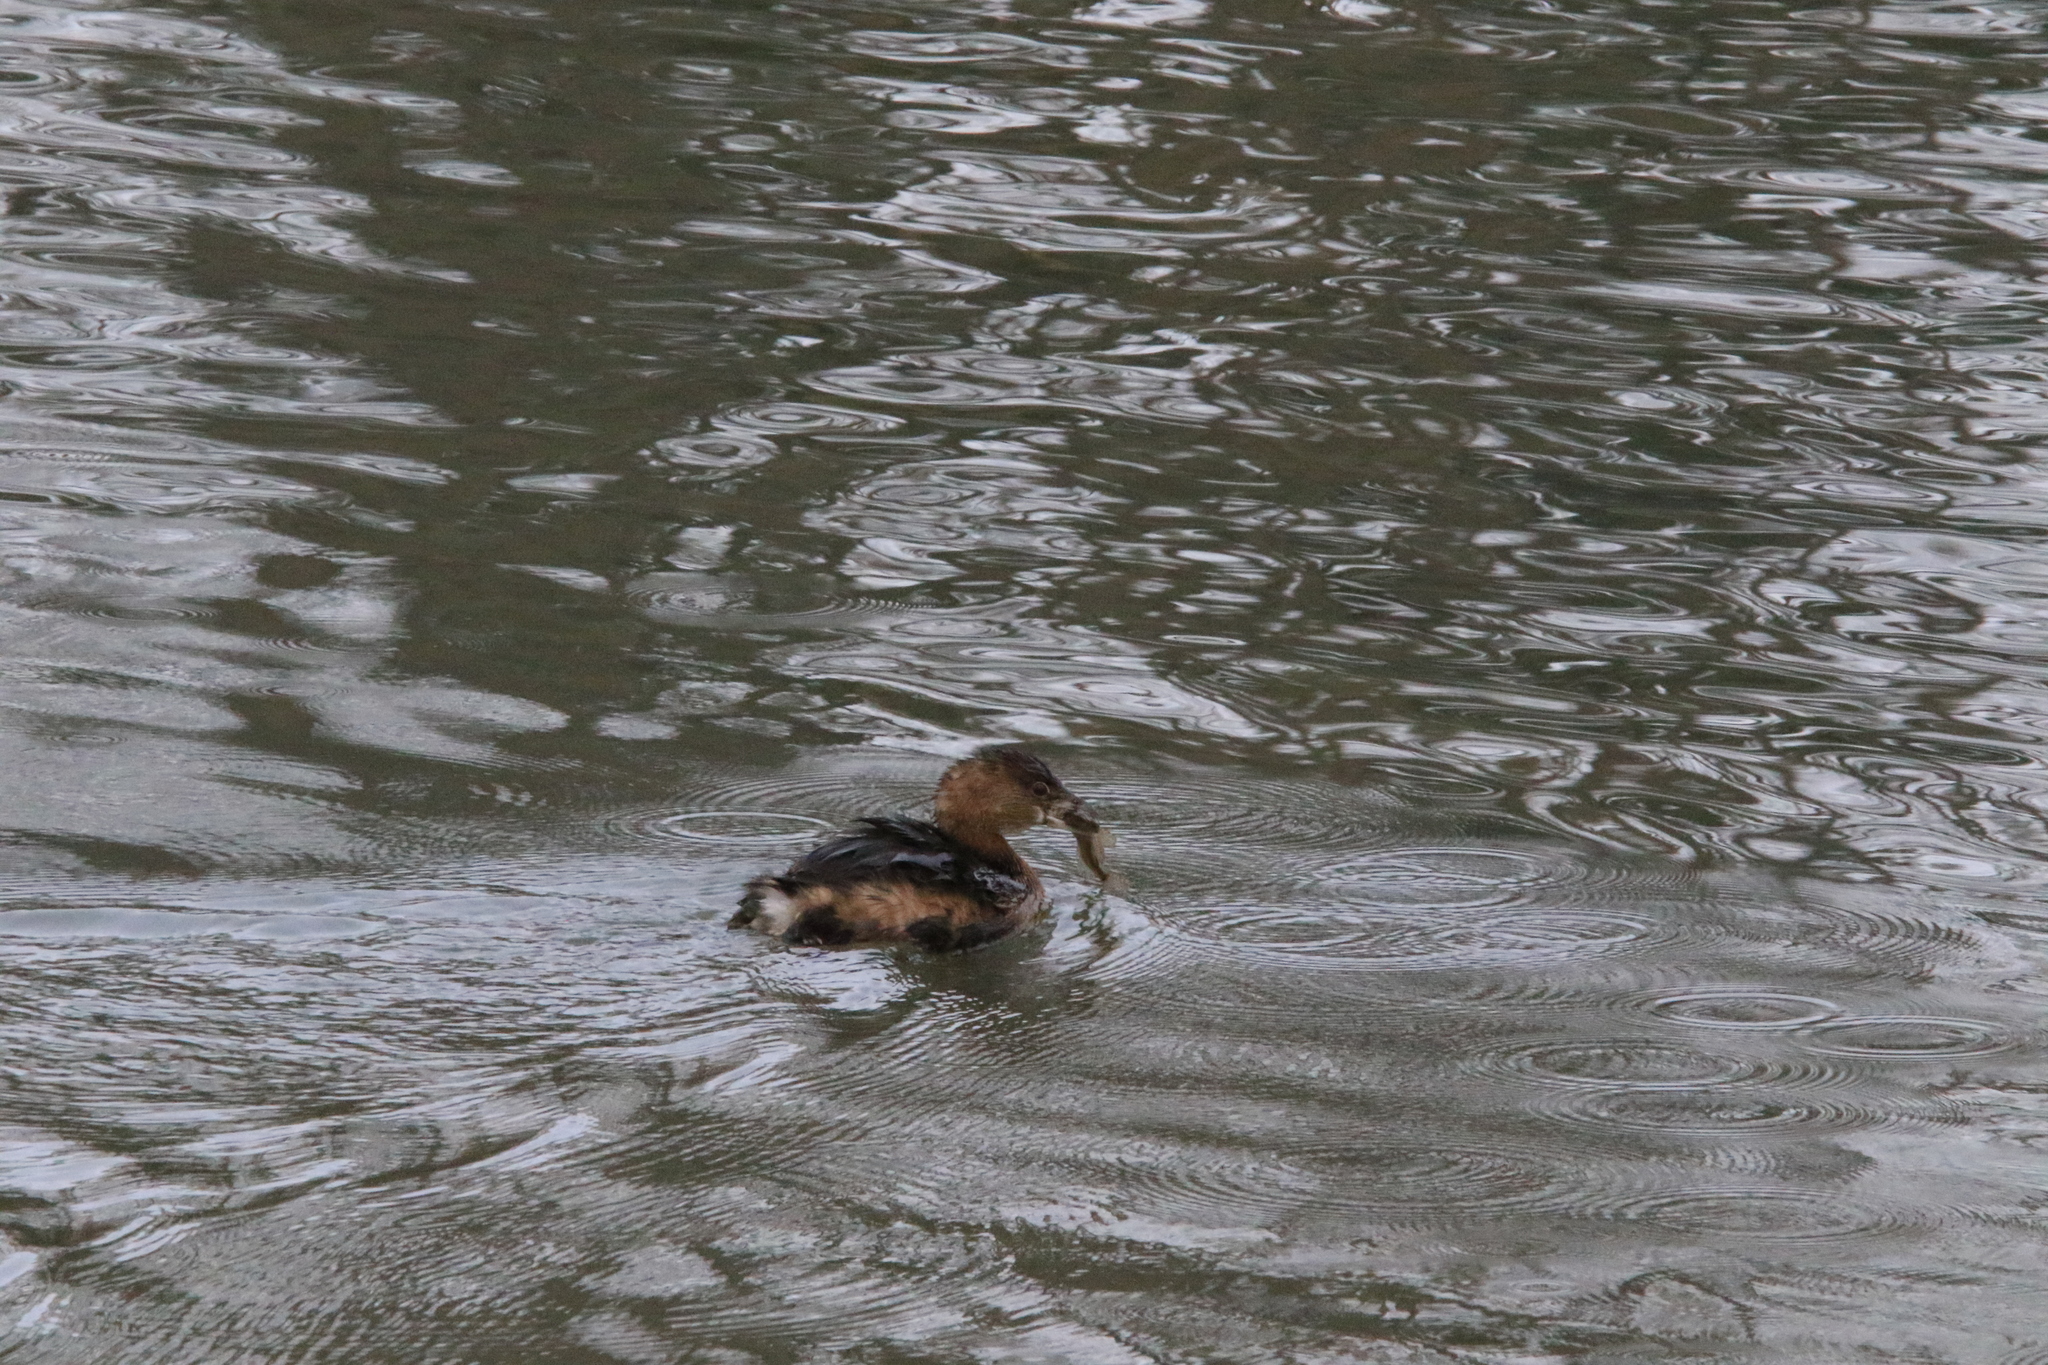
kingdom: Animalia
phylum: Chordata
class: Aves
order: Podicipediformes
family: Podicipedidae
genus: Podilymbus
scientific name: Podilymbus podiceps
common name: Pied-billed grebe
